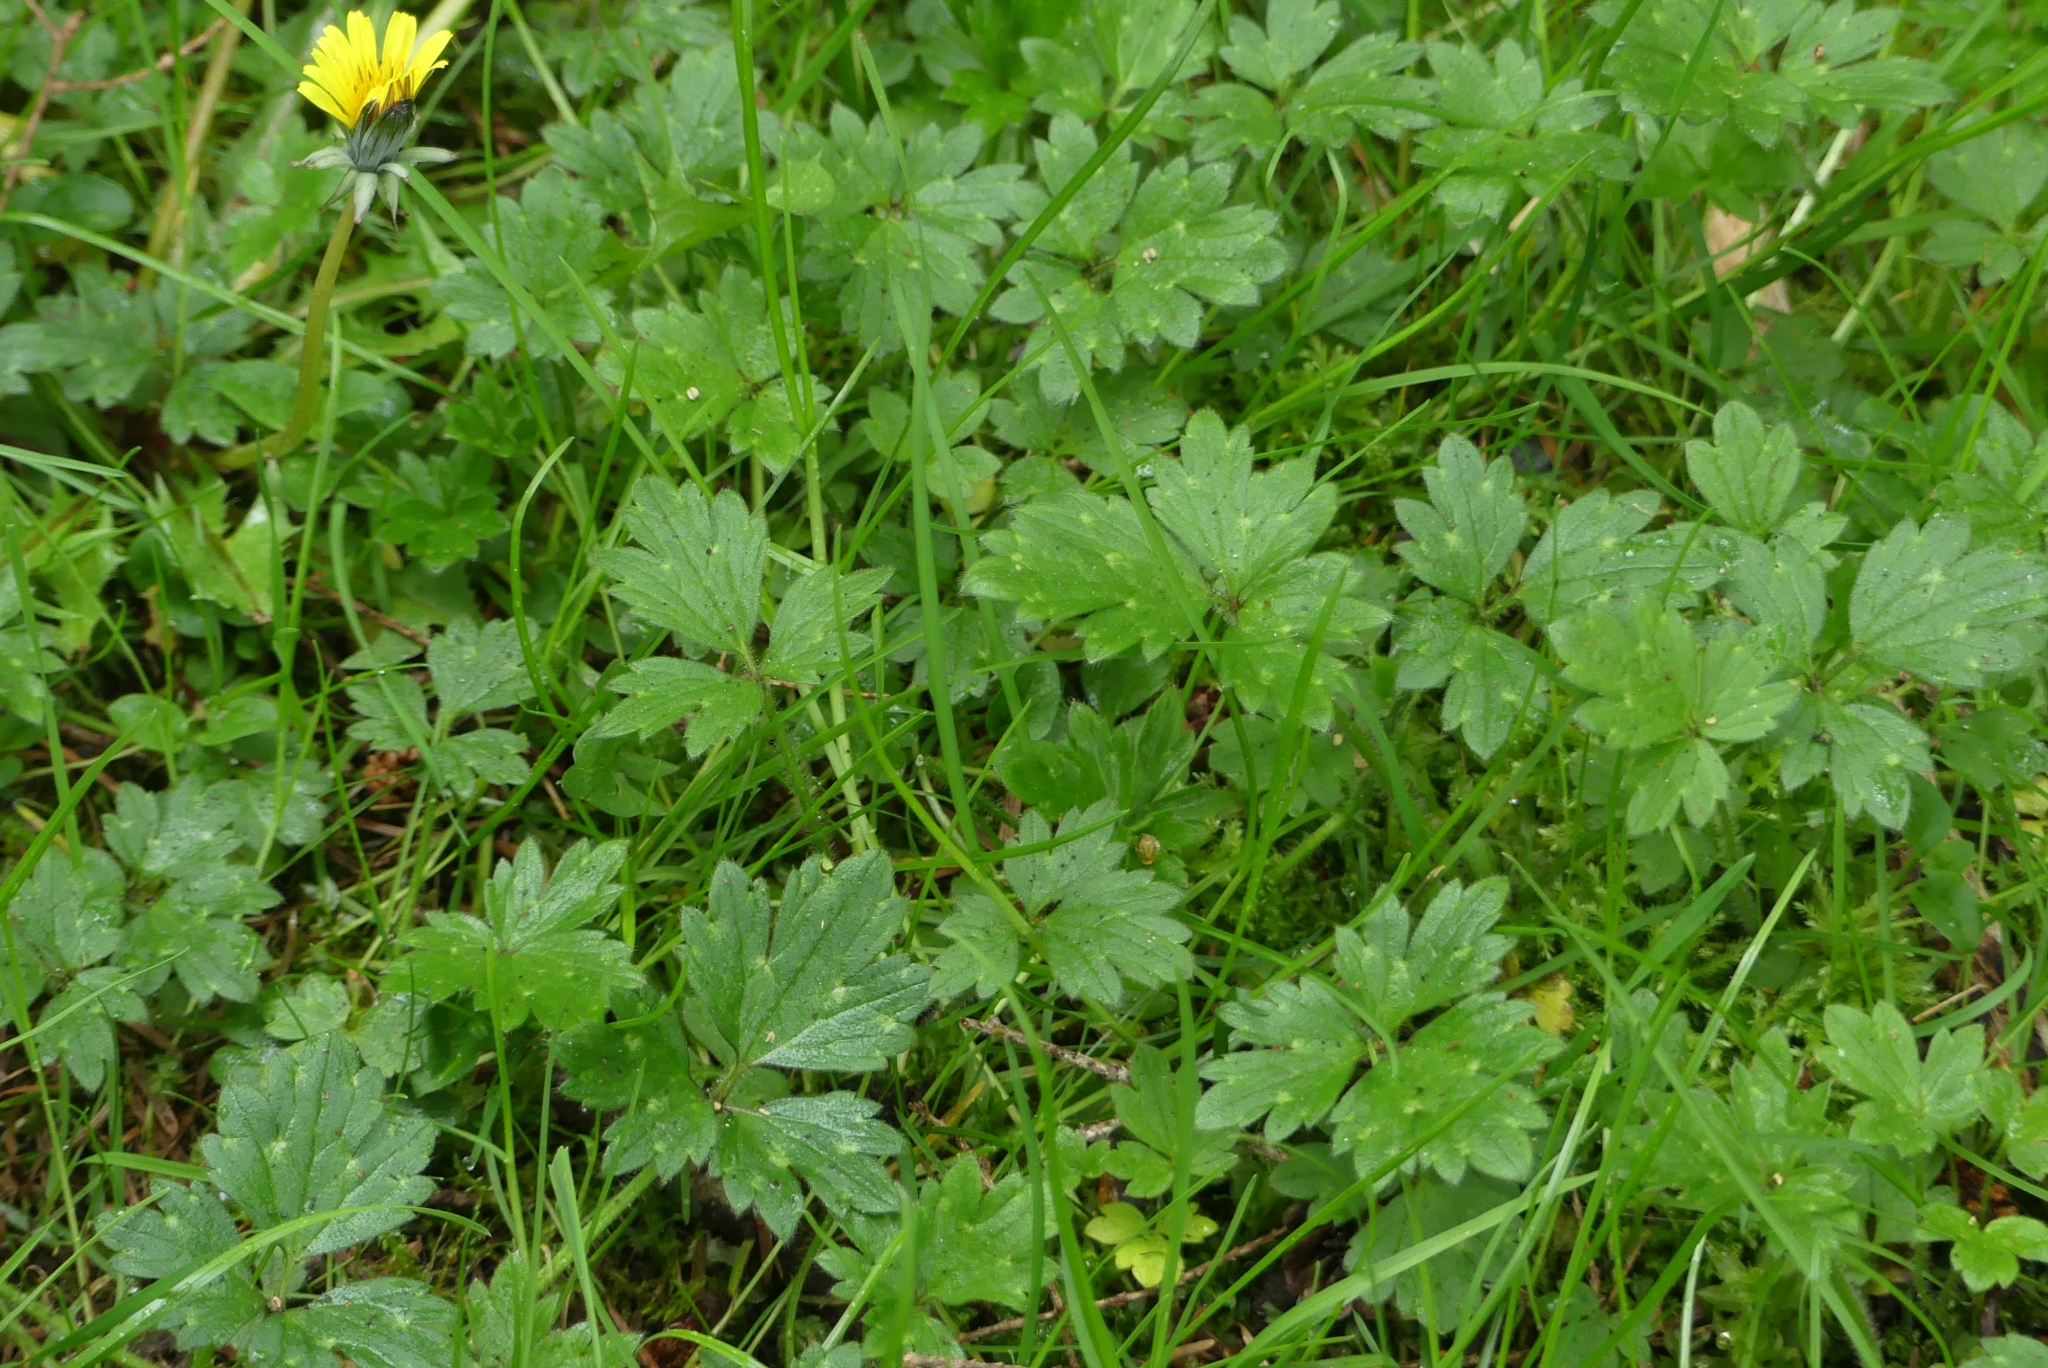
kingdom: Plantae
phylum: Tracheophyta
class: Magnoliopsida
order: Ranunculales
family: Ranunculaceae
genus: Ranunculus
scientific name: Ranunculus repens
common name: Creeping buttercup
